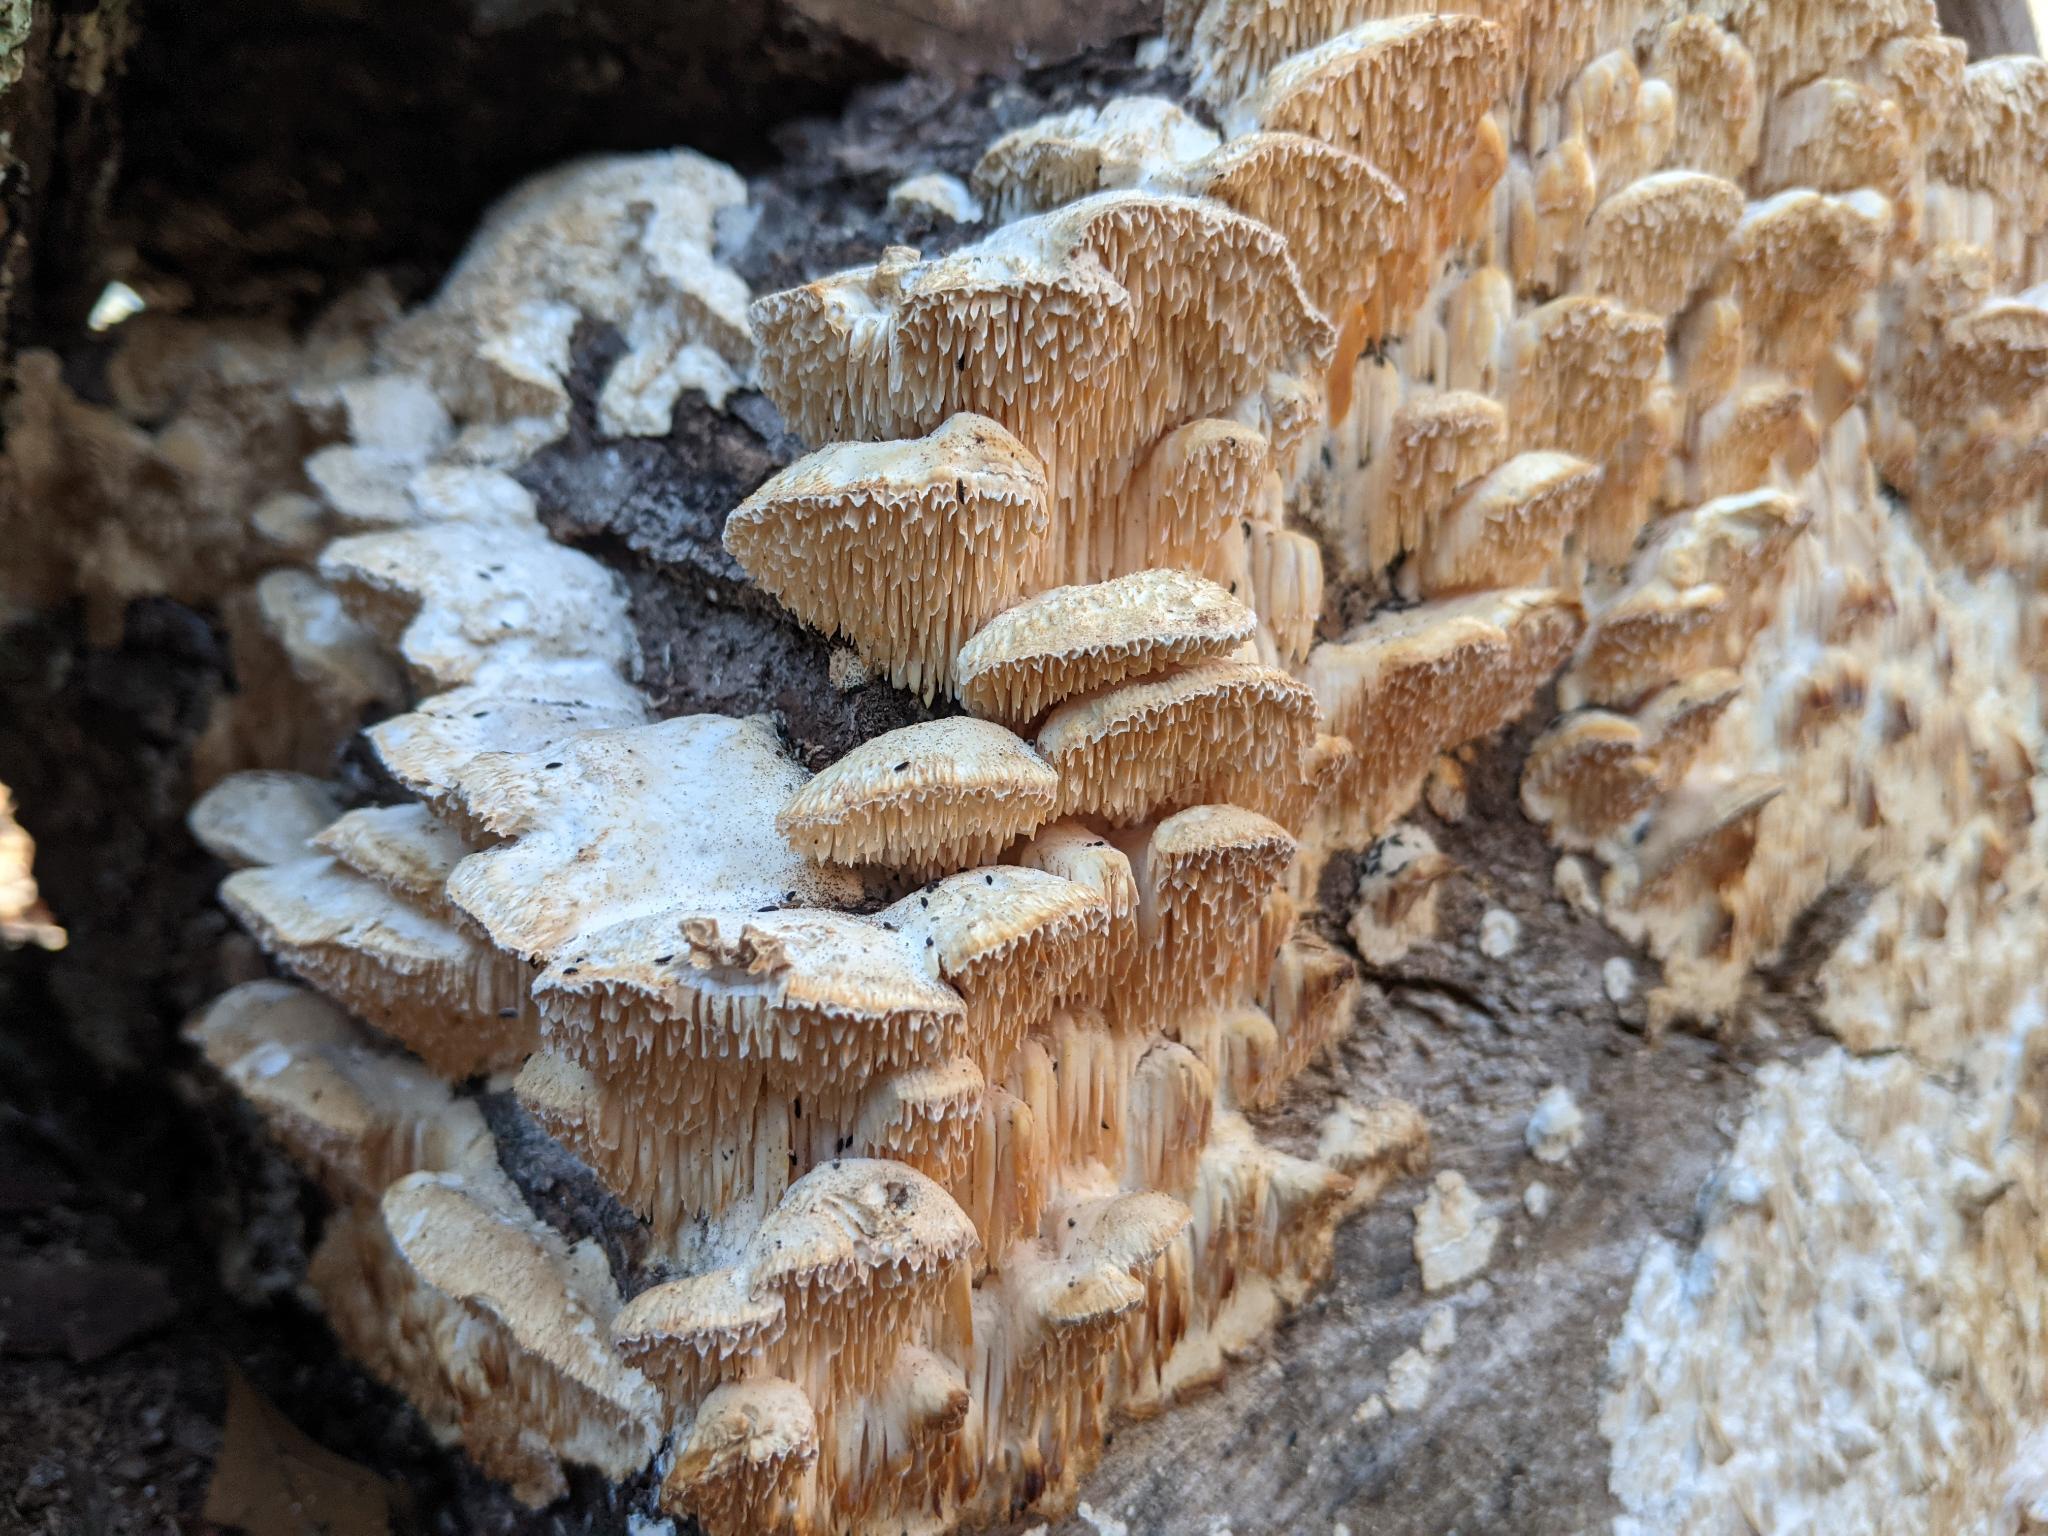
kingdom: Fungi
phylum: Basidiomycota
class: Agaricomycetes
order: Polyporales
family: Meruliaceae
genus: Irpiciporus
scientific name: Irpiciporus pachyodon
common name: Marshmallow polypore
